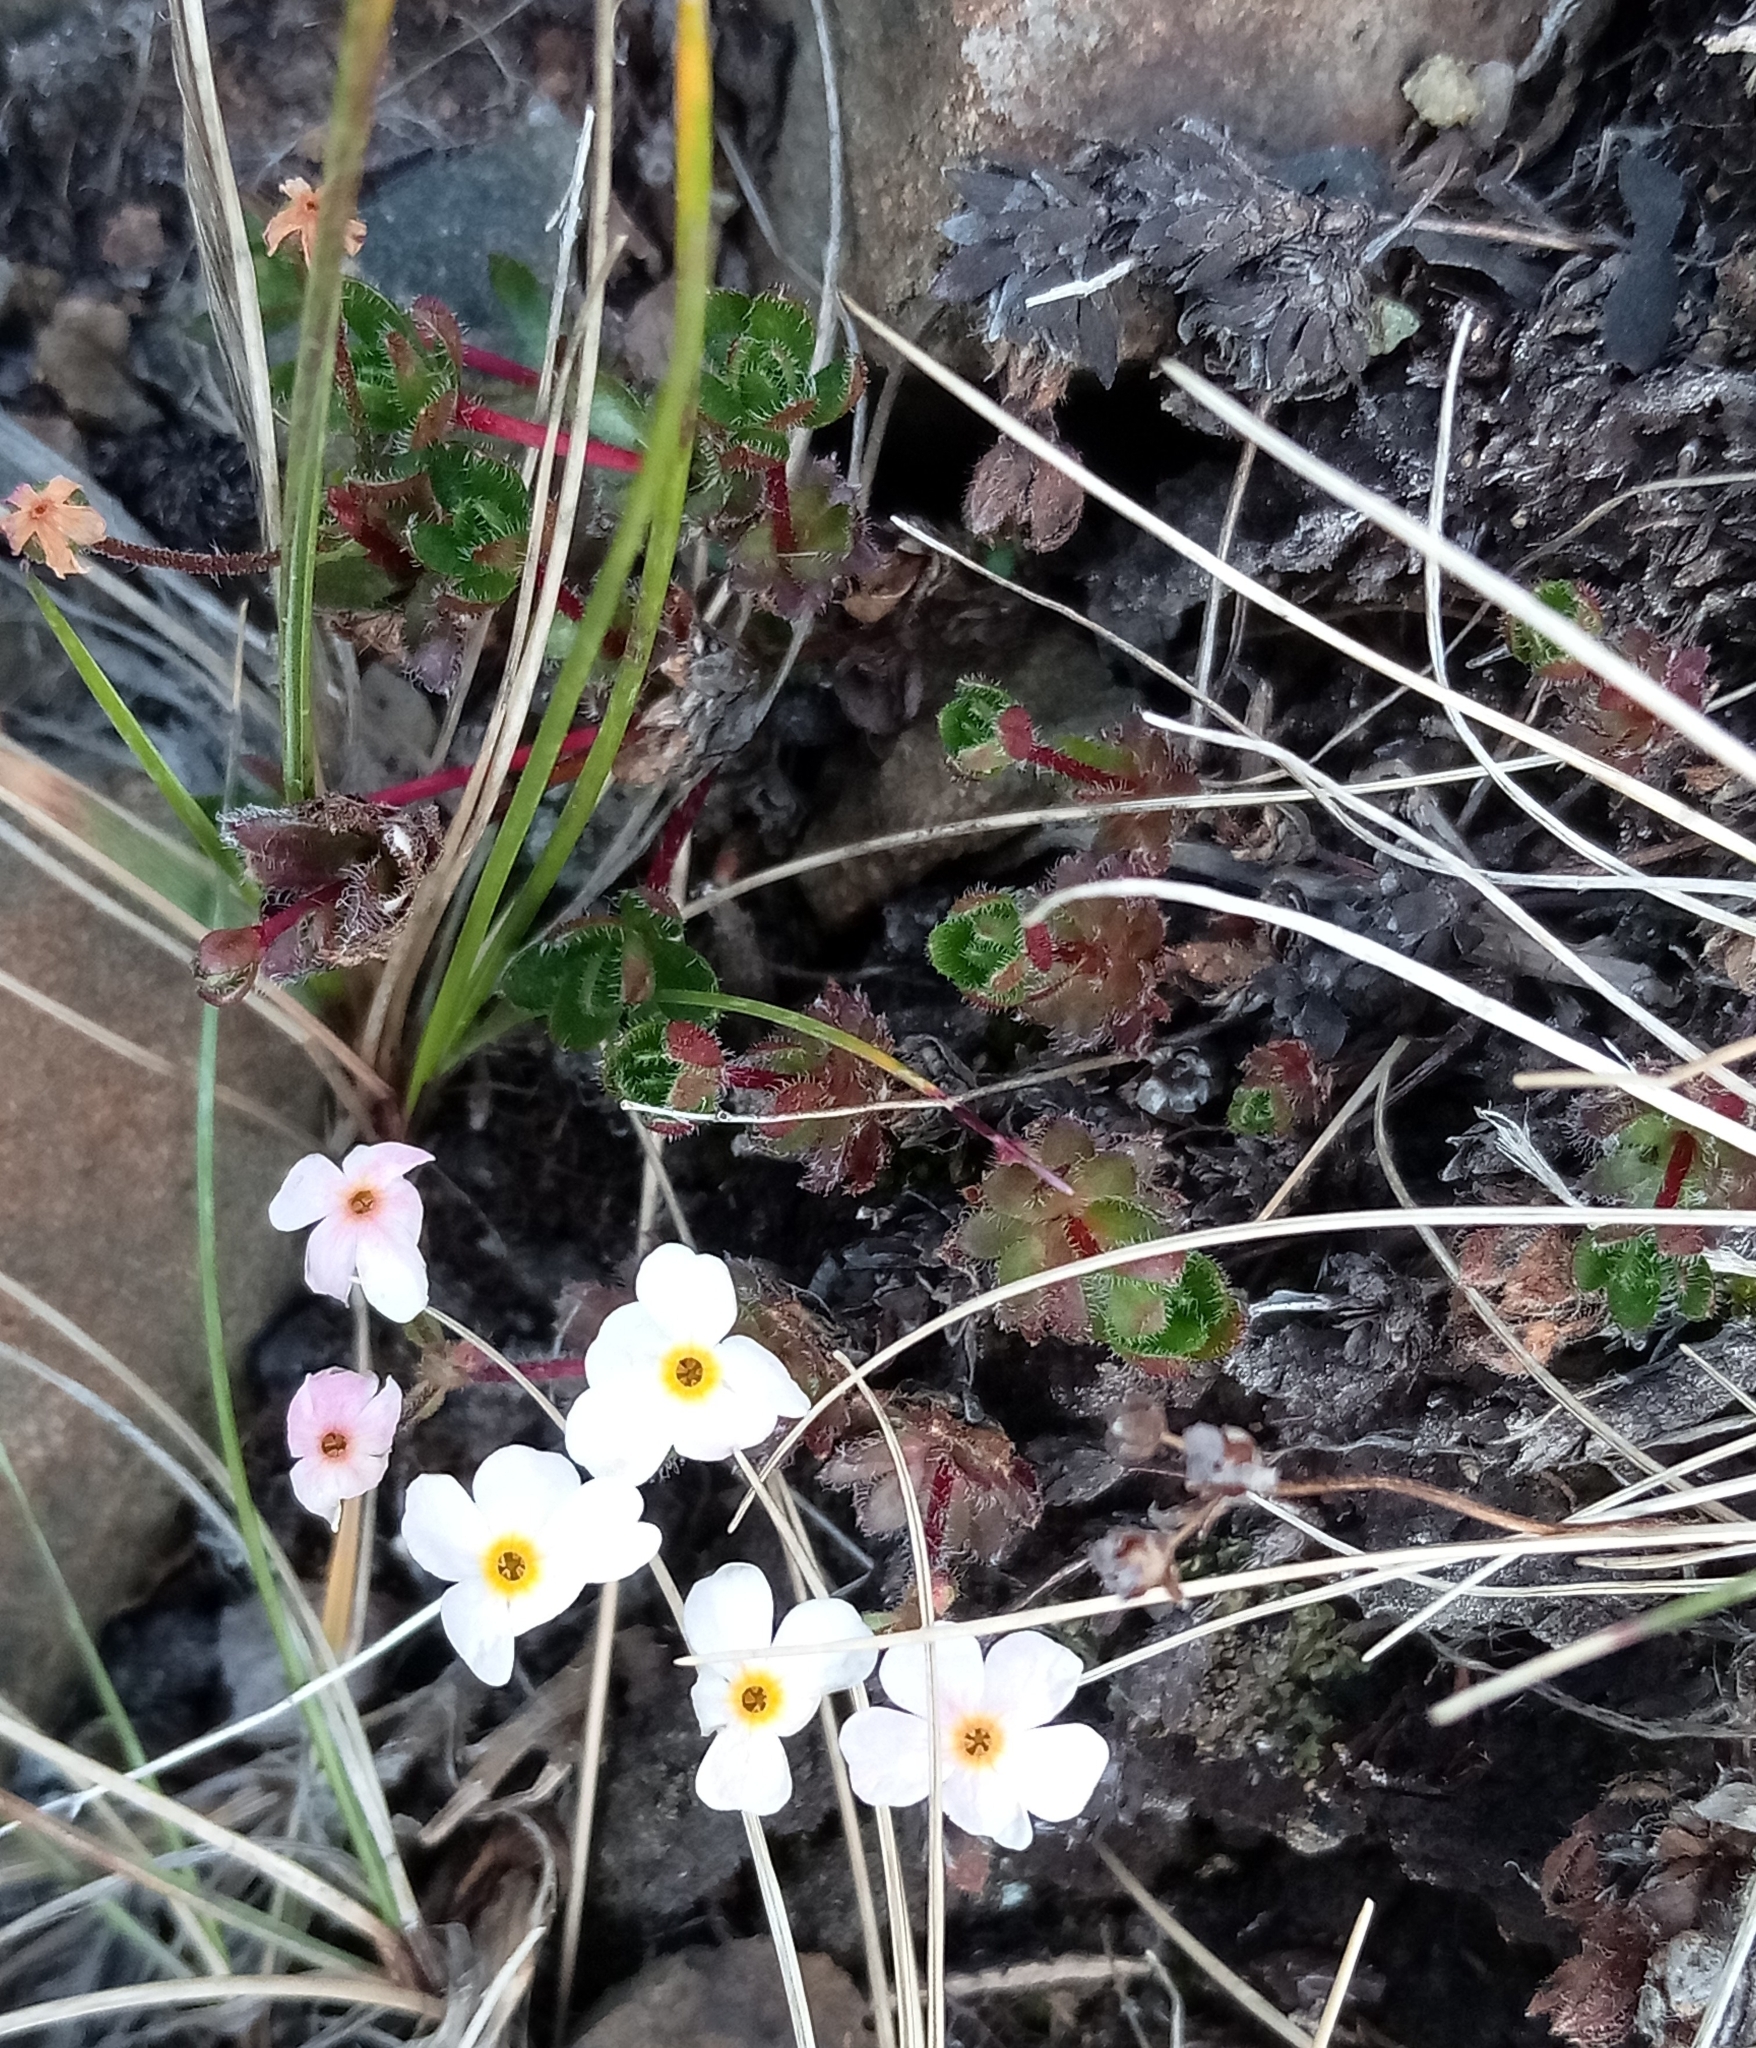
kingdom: Plantae
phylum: Tracheophyta
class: Magnoliopsida
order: Ericales
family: Primulaceae
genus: Androsace
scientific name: Androsace bungeana
